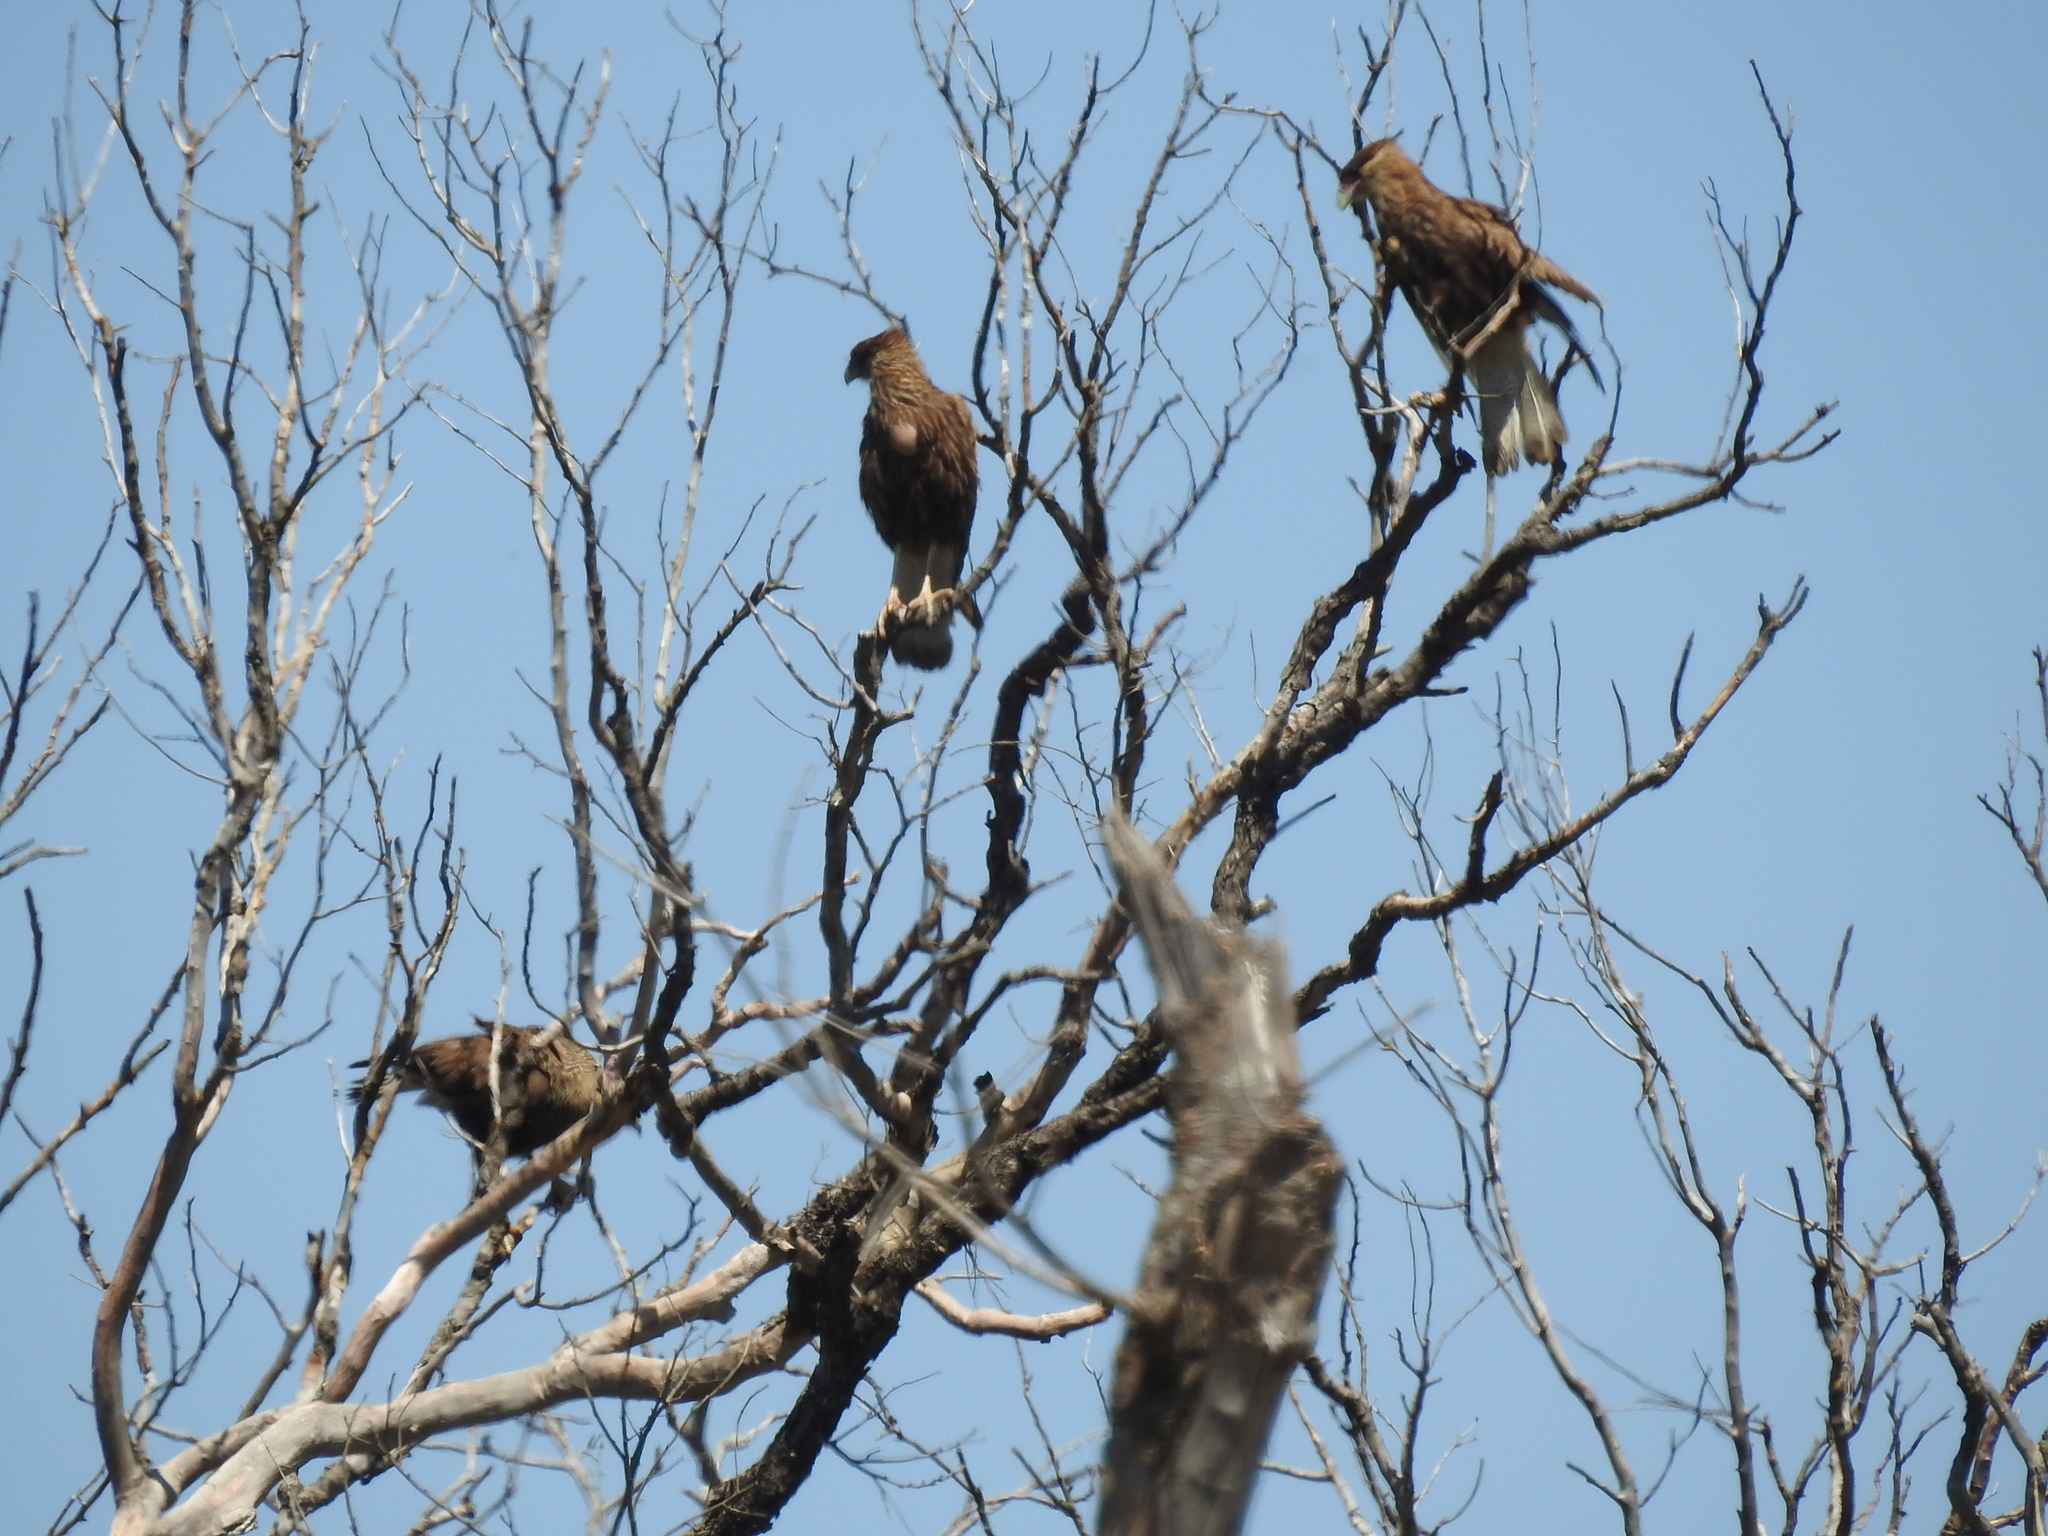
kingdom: Animalia
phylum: Chordata
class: Aves
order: Falconiformes
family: Falconidae
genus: Caracara
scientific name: Caracara plancus
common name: Southern caracara
